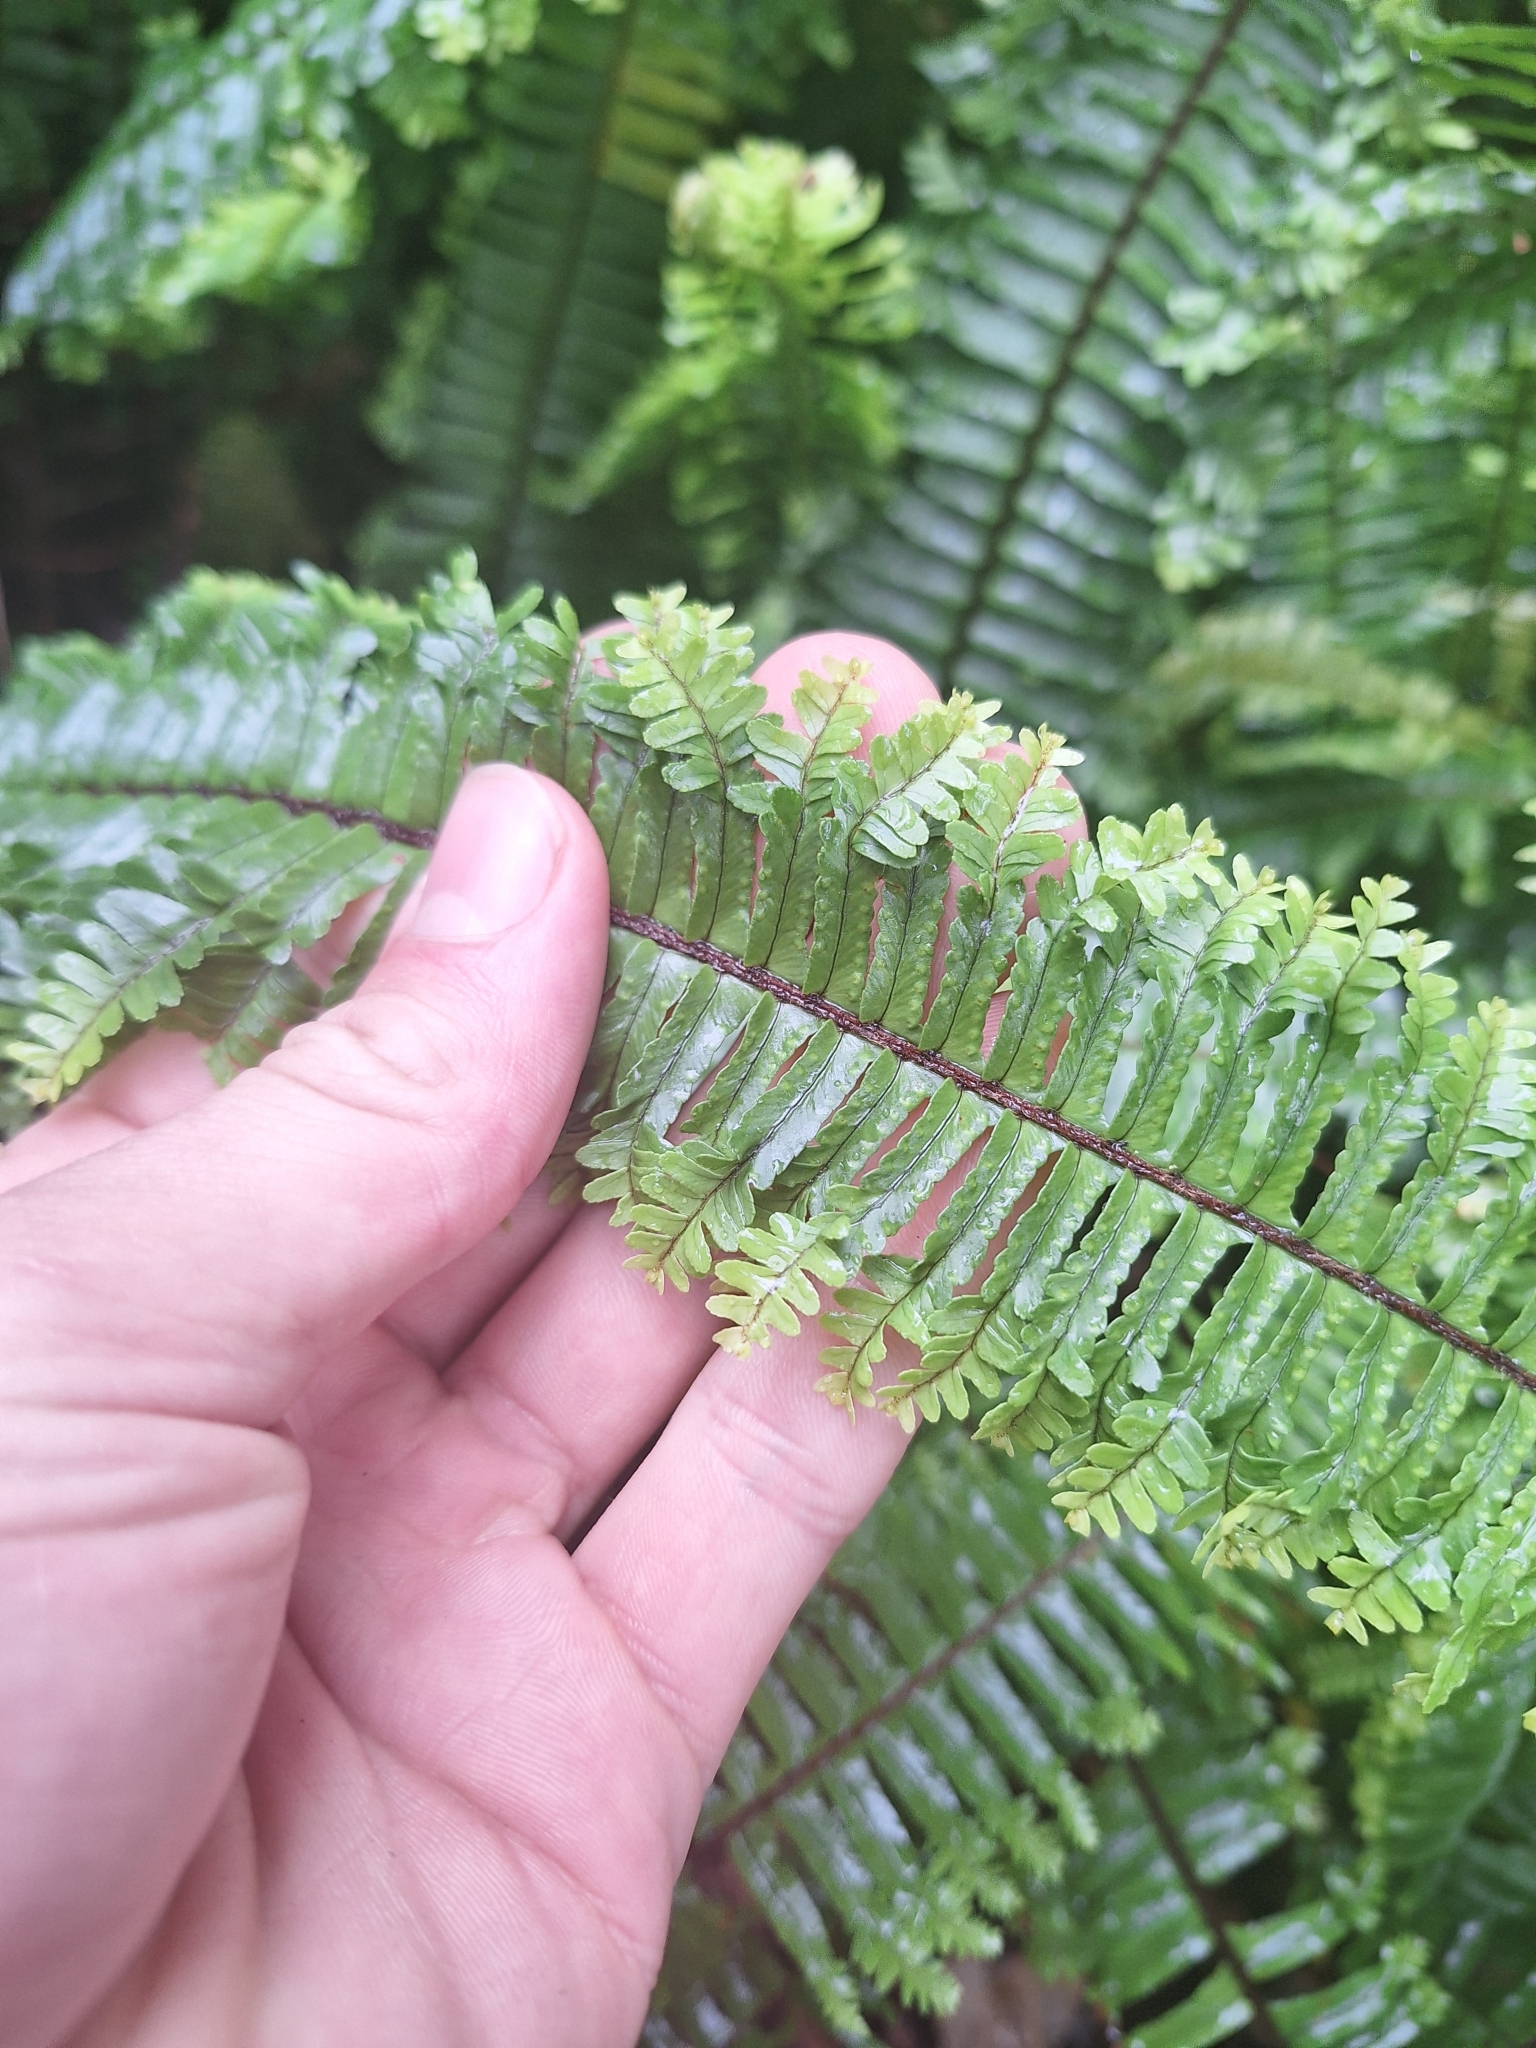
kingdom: Plantae
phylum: Tracheophyta
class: Polypodiopsida
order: Polypodiales
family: Nephrolepidaceae
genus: Nephrolepis
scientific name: Nephrolepis cordifolia
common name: Narrow swordfern
